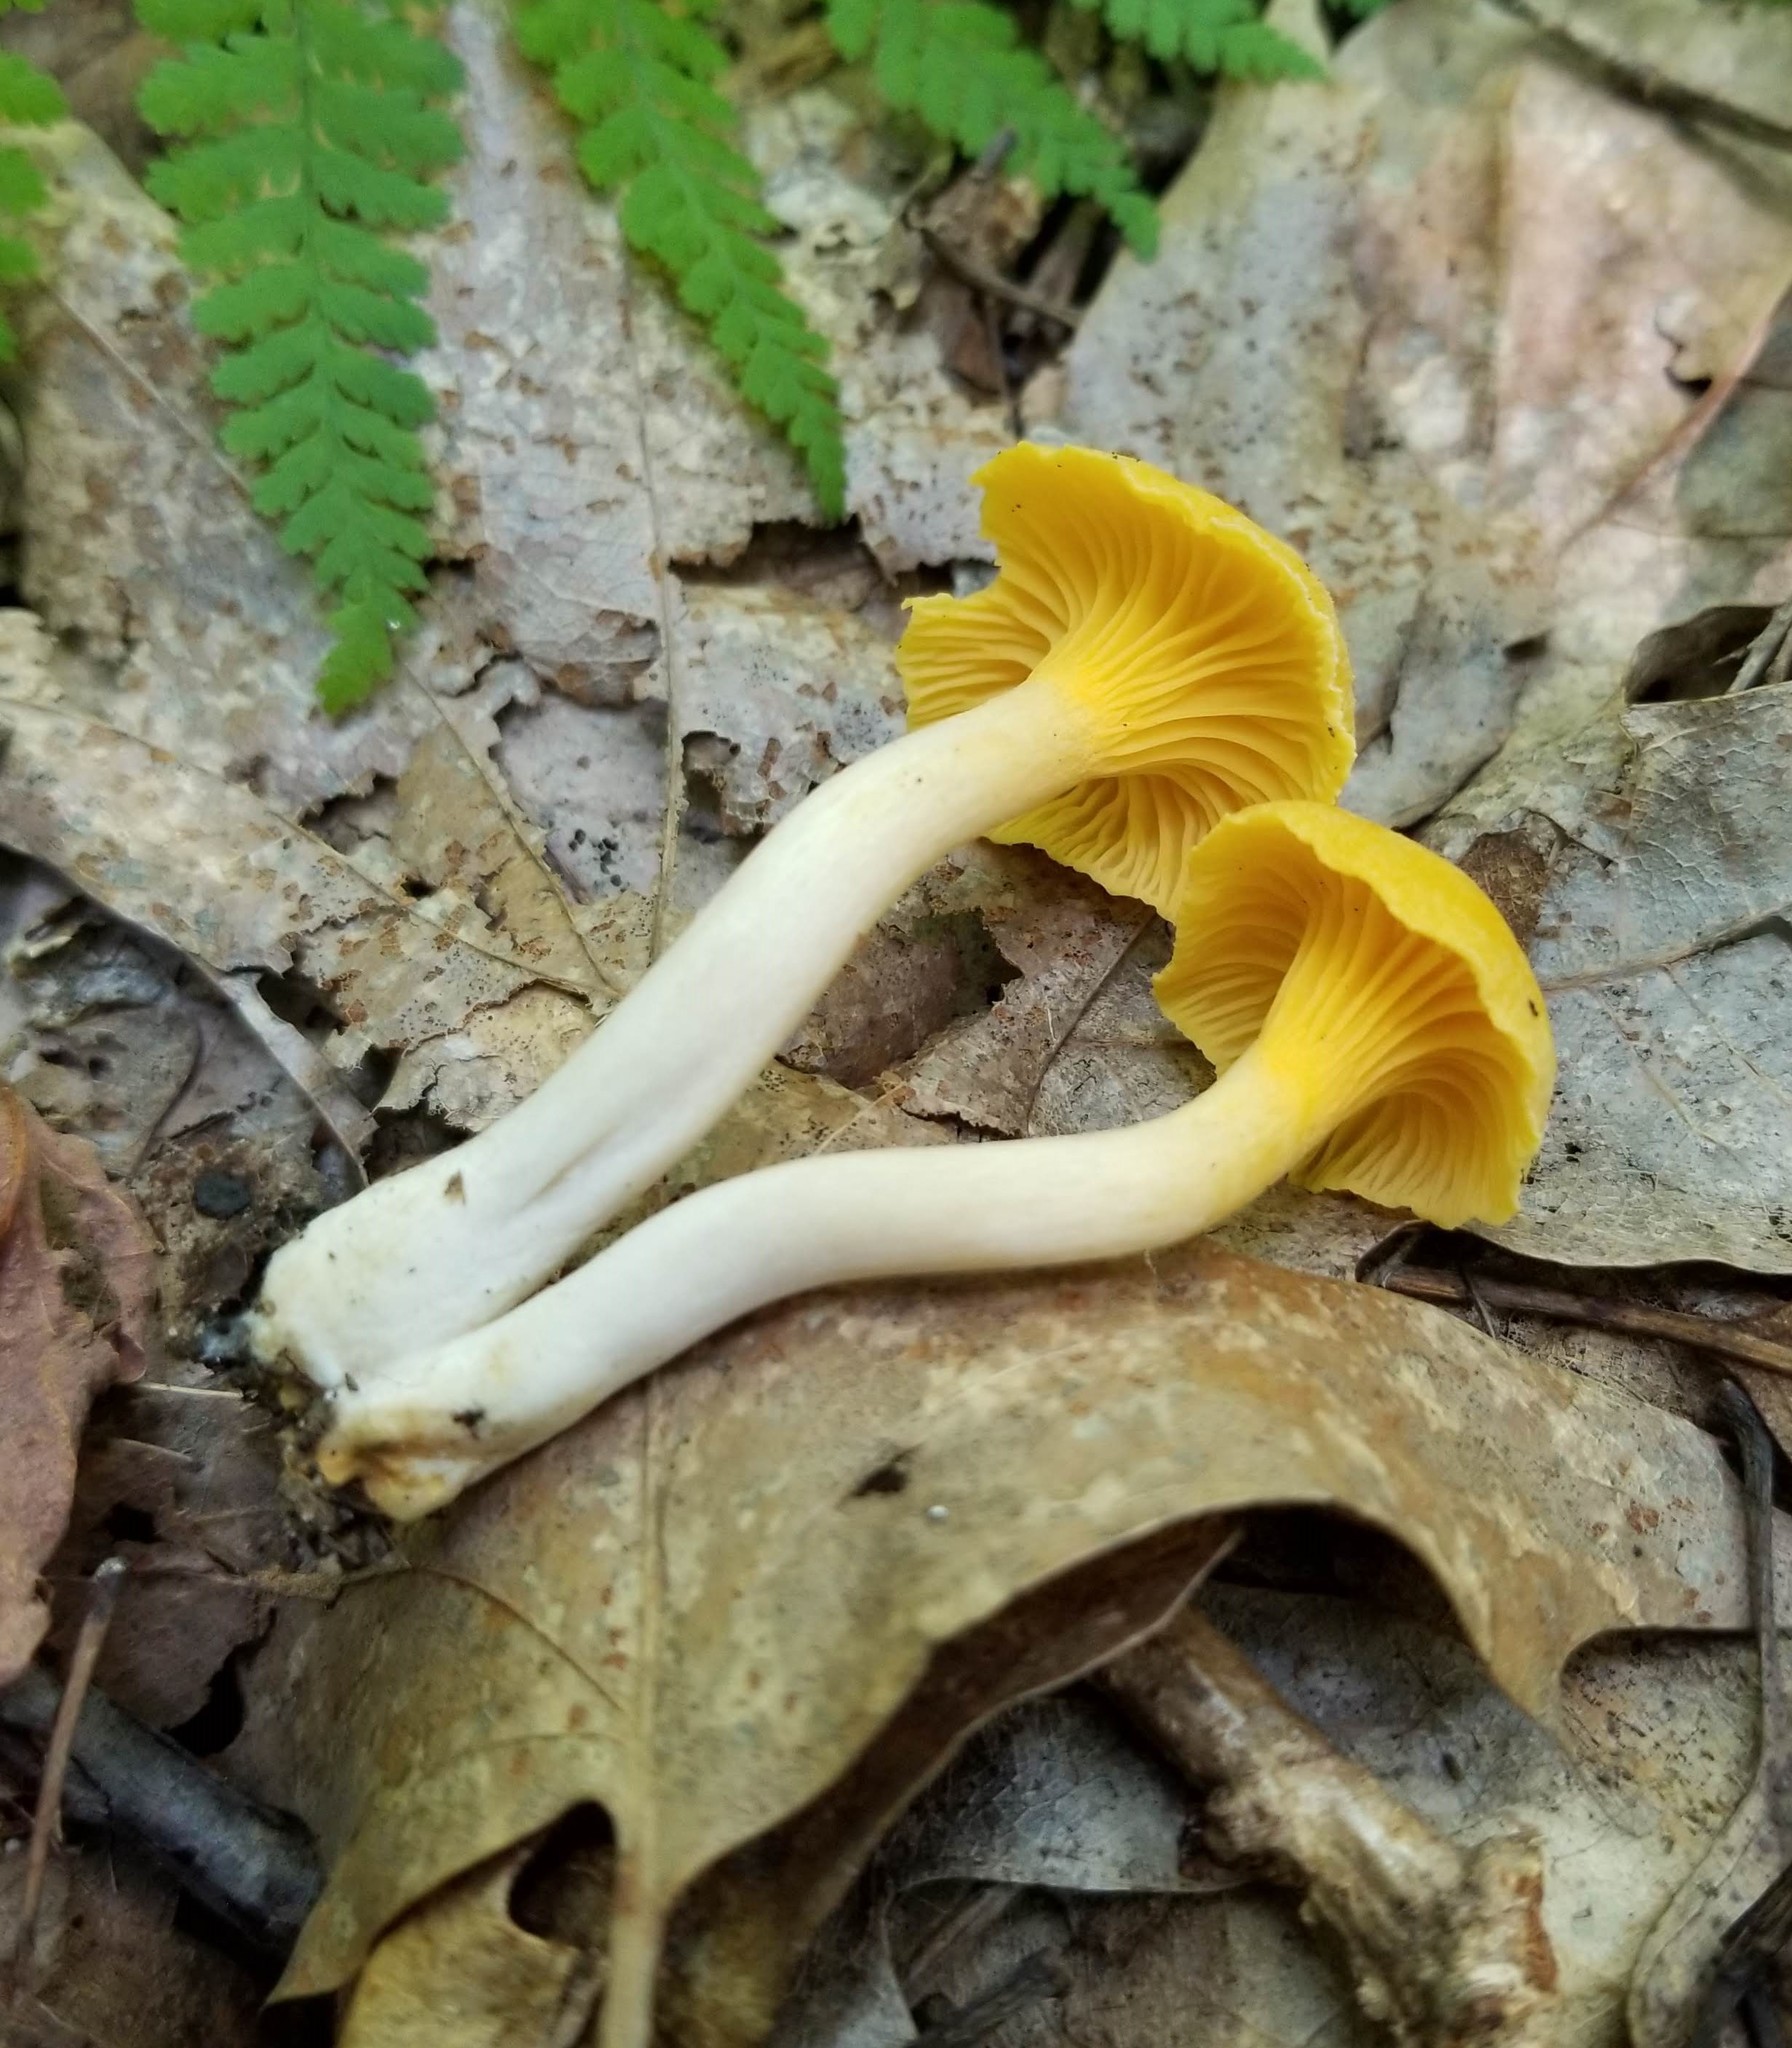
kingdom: Fungi
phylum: Basidiomycota
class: Agaricomycetes
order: Cantharellales
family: Hydnaceae
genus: Cantharellus
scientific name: Cantharellus appalachiensis
